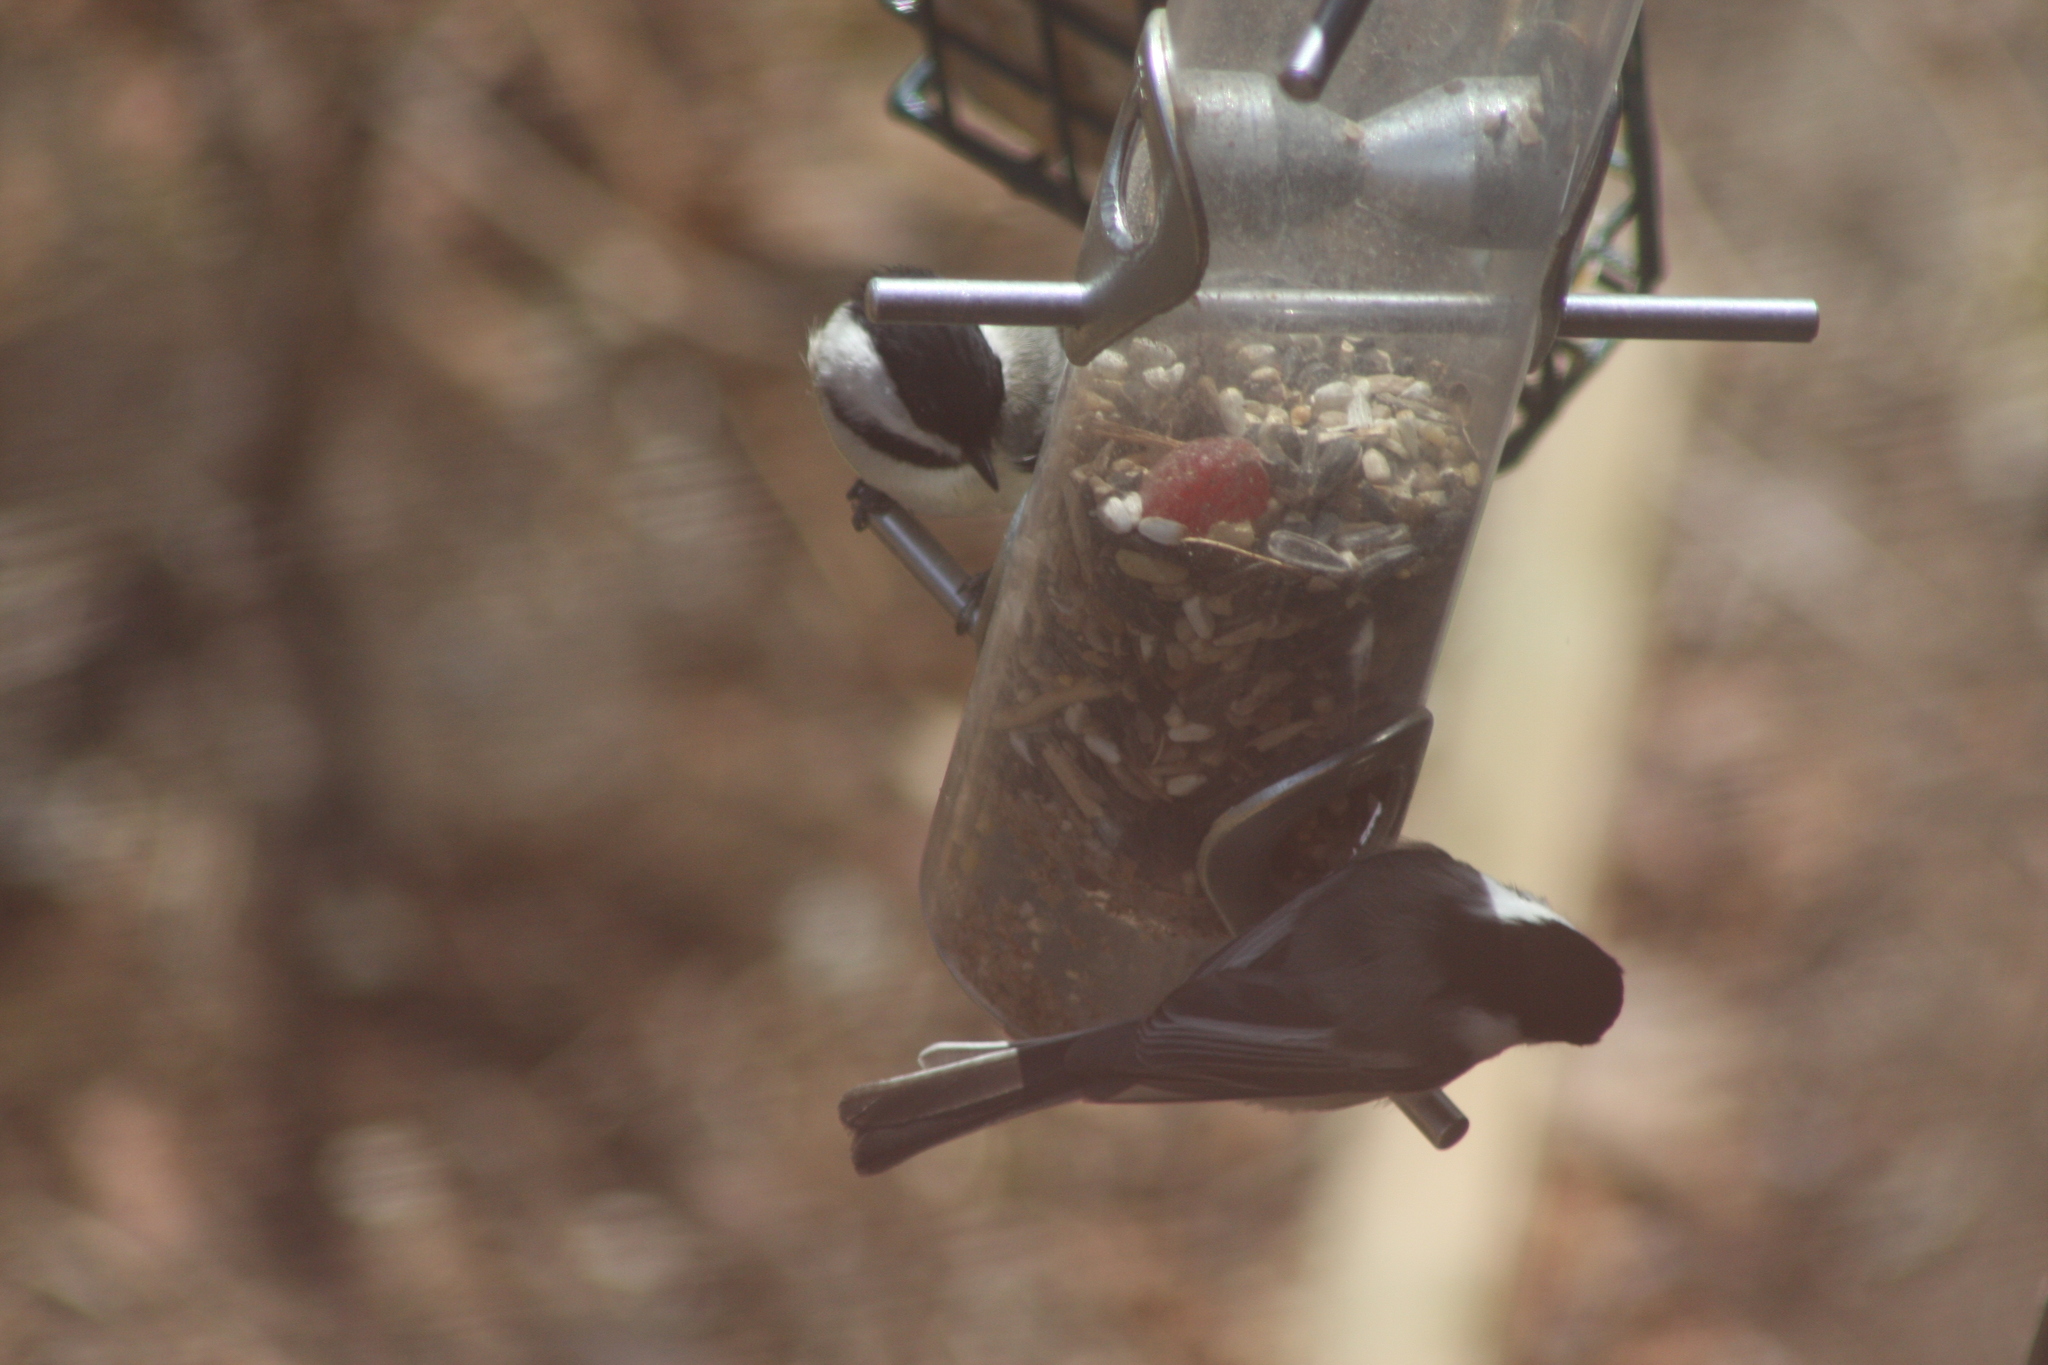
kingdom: Animalia
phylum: Chordata
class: Aves
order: Passeriformes
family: Paridae
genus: Poecile
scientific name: Poecile atricapillus
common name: Black-capped chickadee
